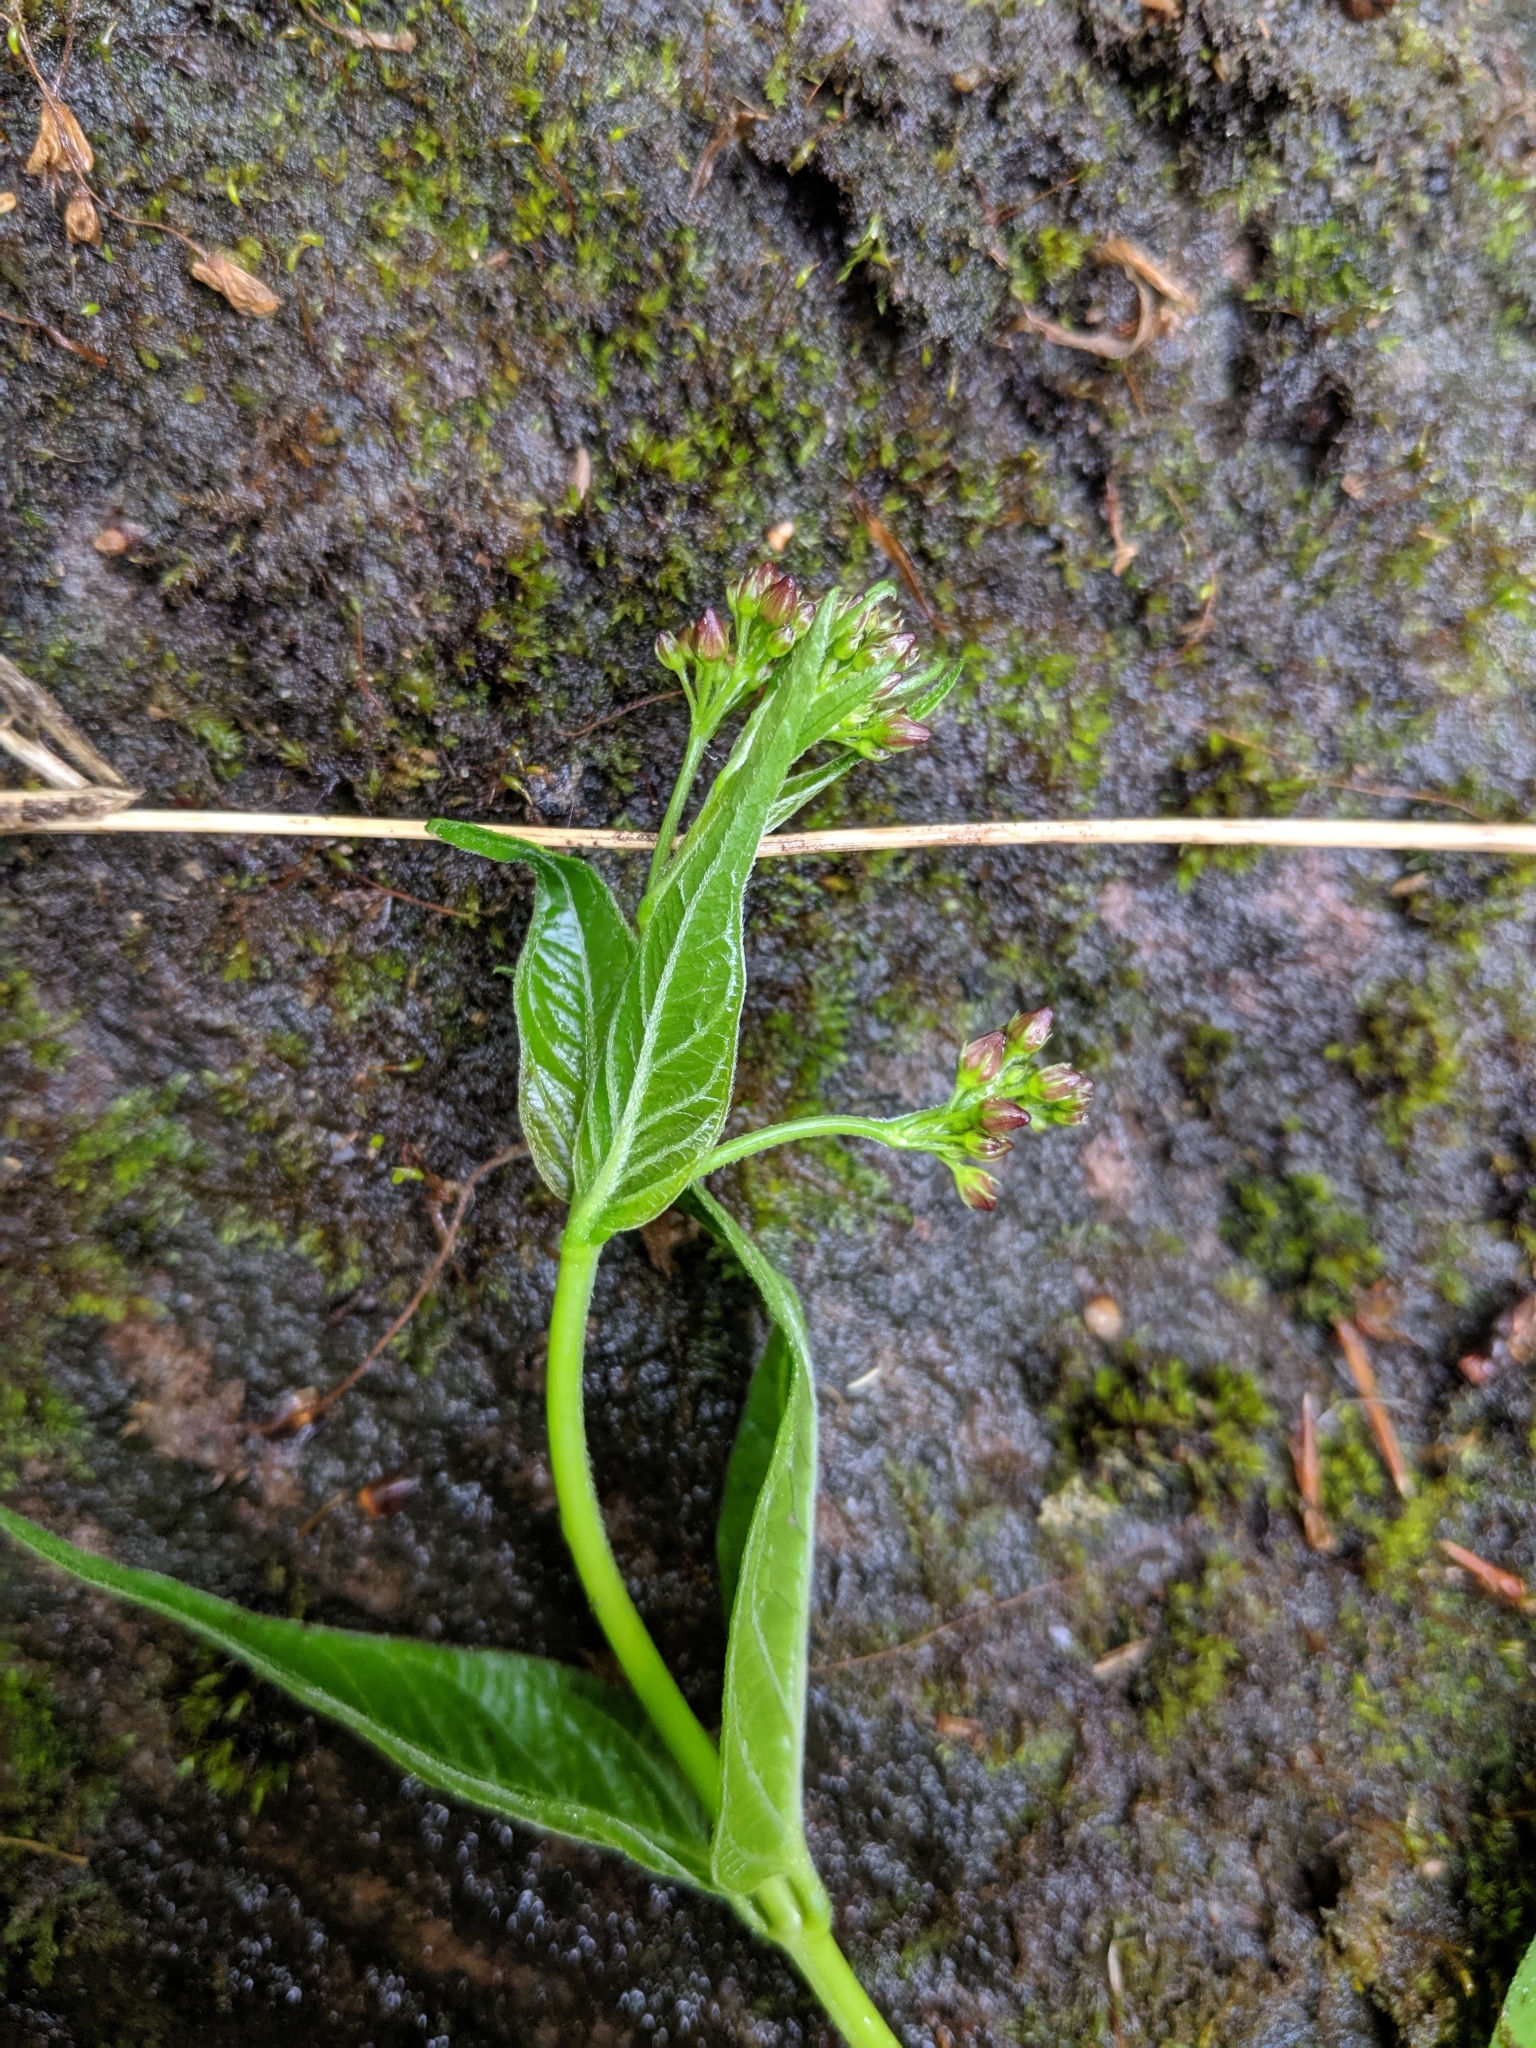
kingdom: Plantae
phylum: Tracheophyta
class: Magnoliopsida
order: Gentianales
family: Apocynaceae
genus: Vincetoxicum
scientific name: Vincetoxicum rossicum
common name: Dog-strangling vine
